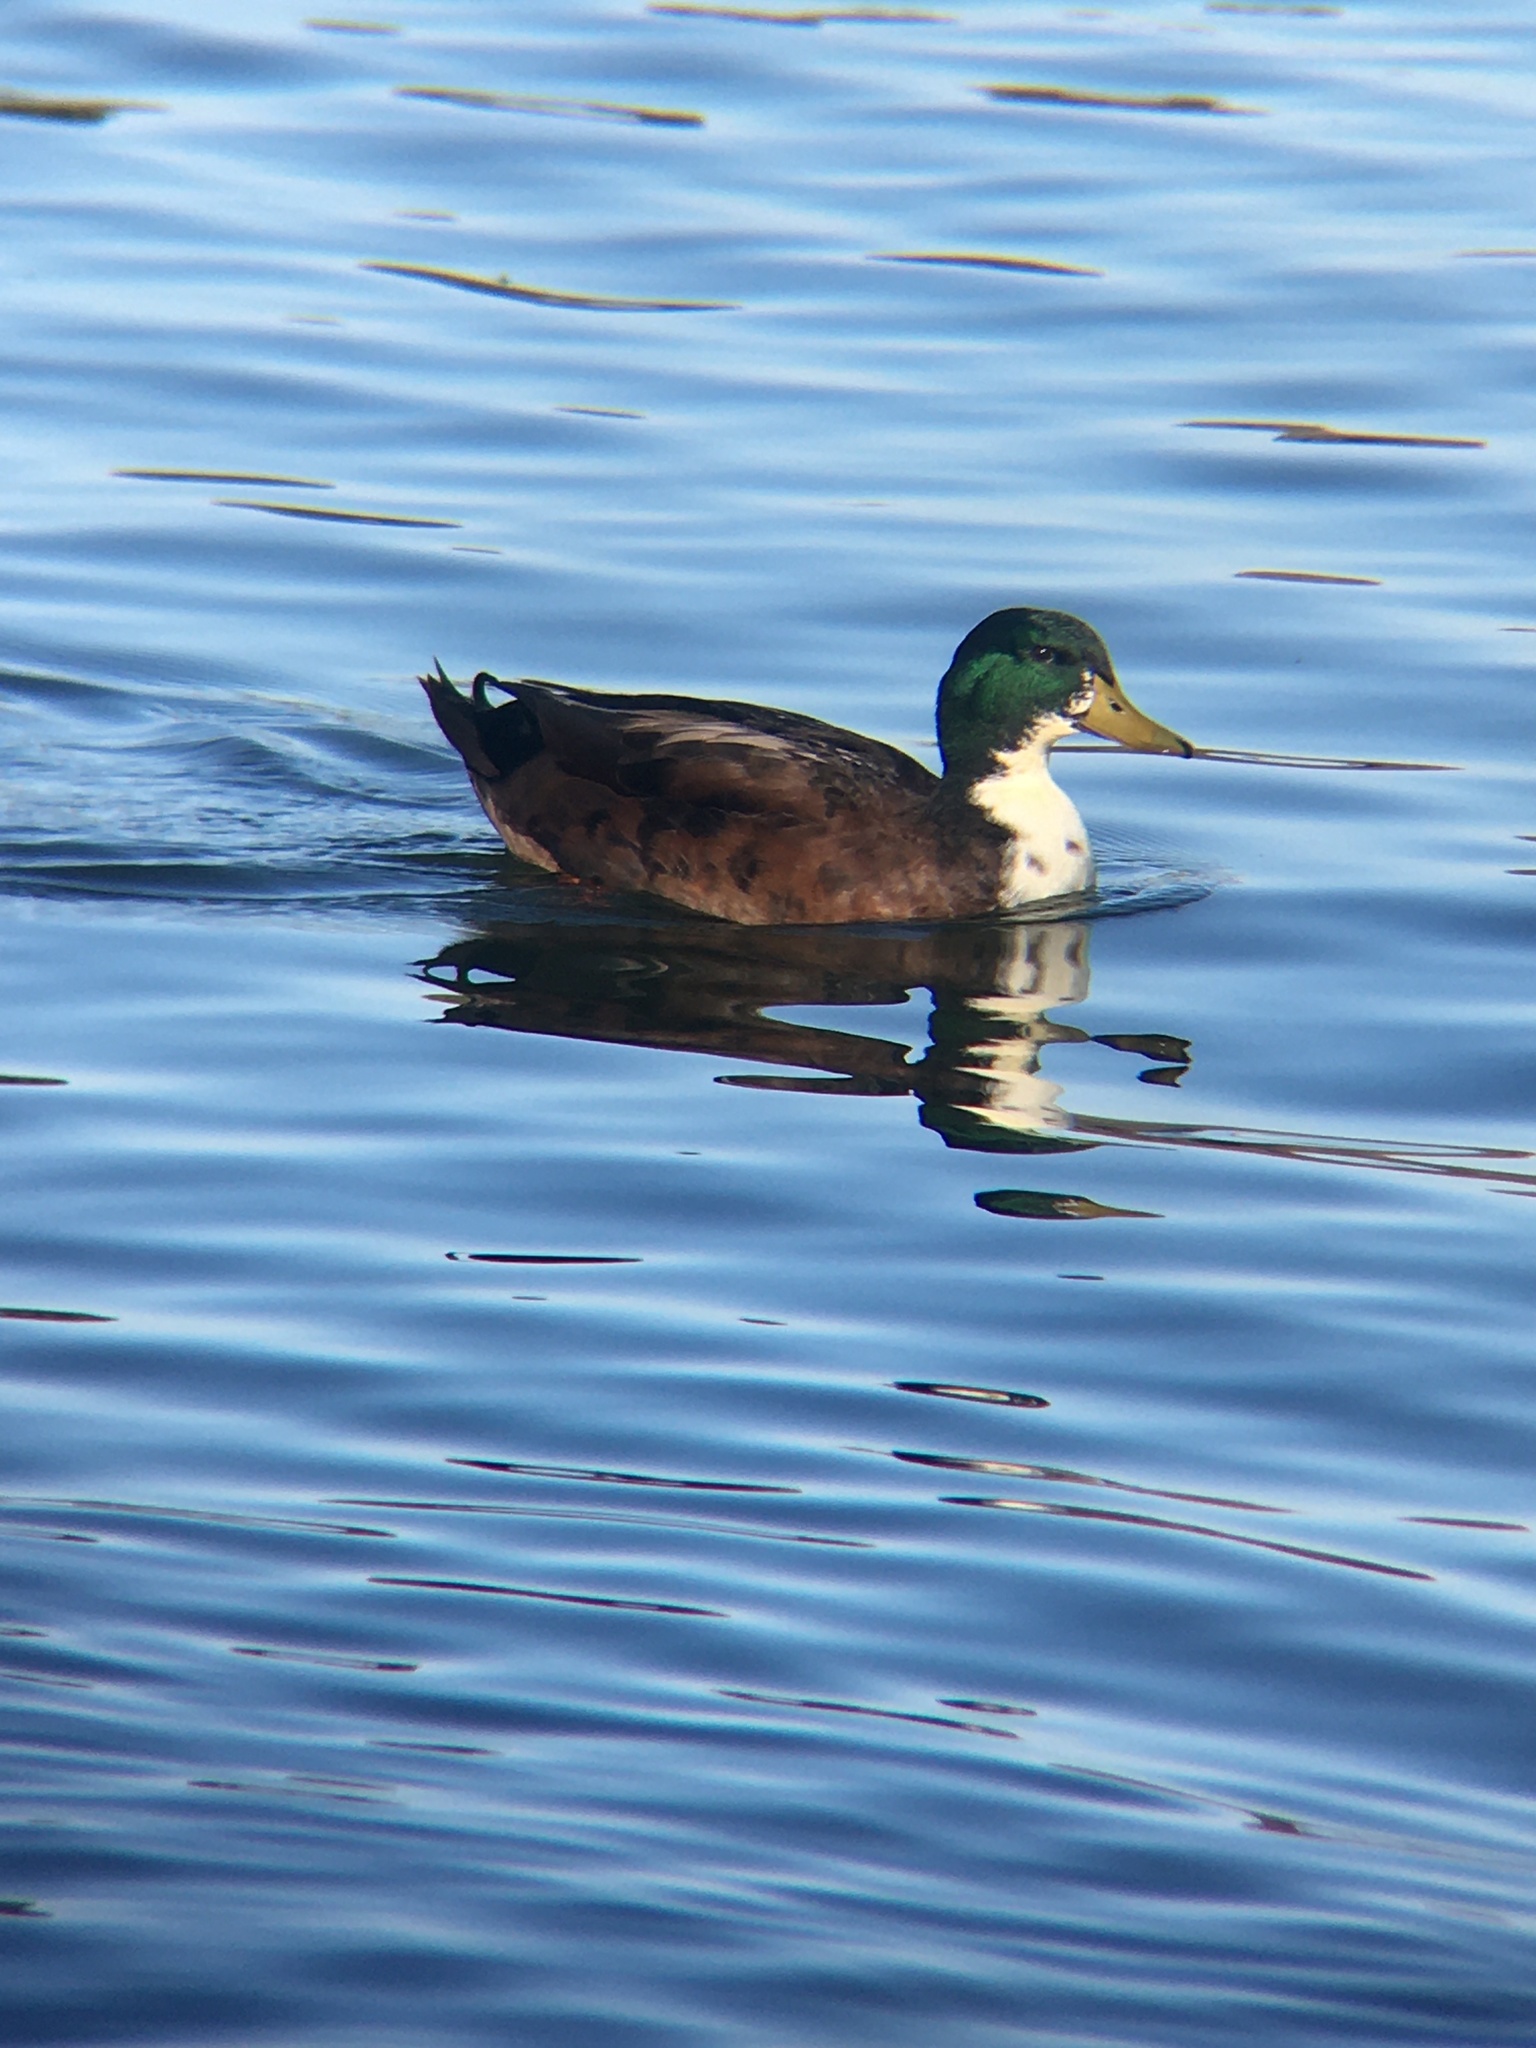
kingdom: Animalia
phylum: Chordata
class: Aves
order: Anseriformes
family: Anatidae
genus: Anas
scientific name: Anas platyrhynchos
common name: Mallard
